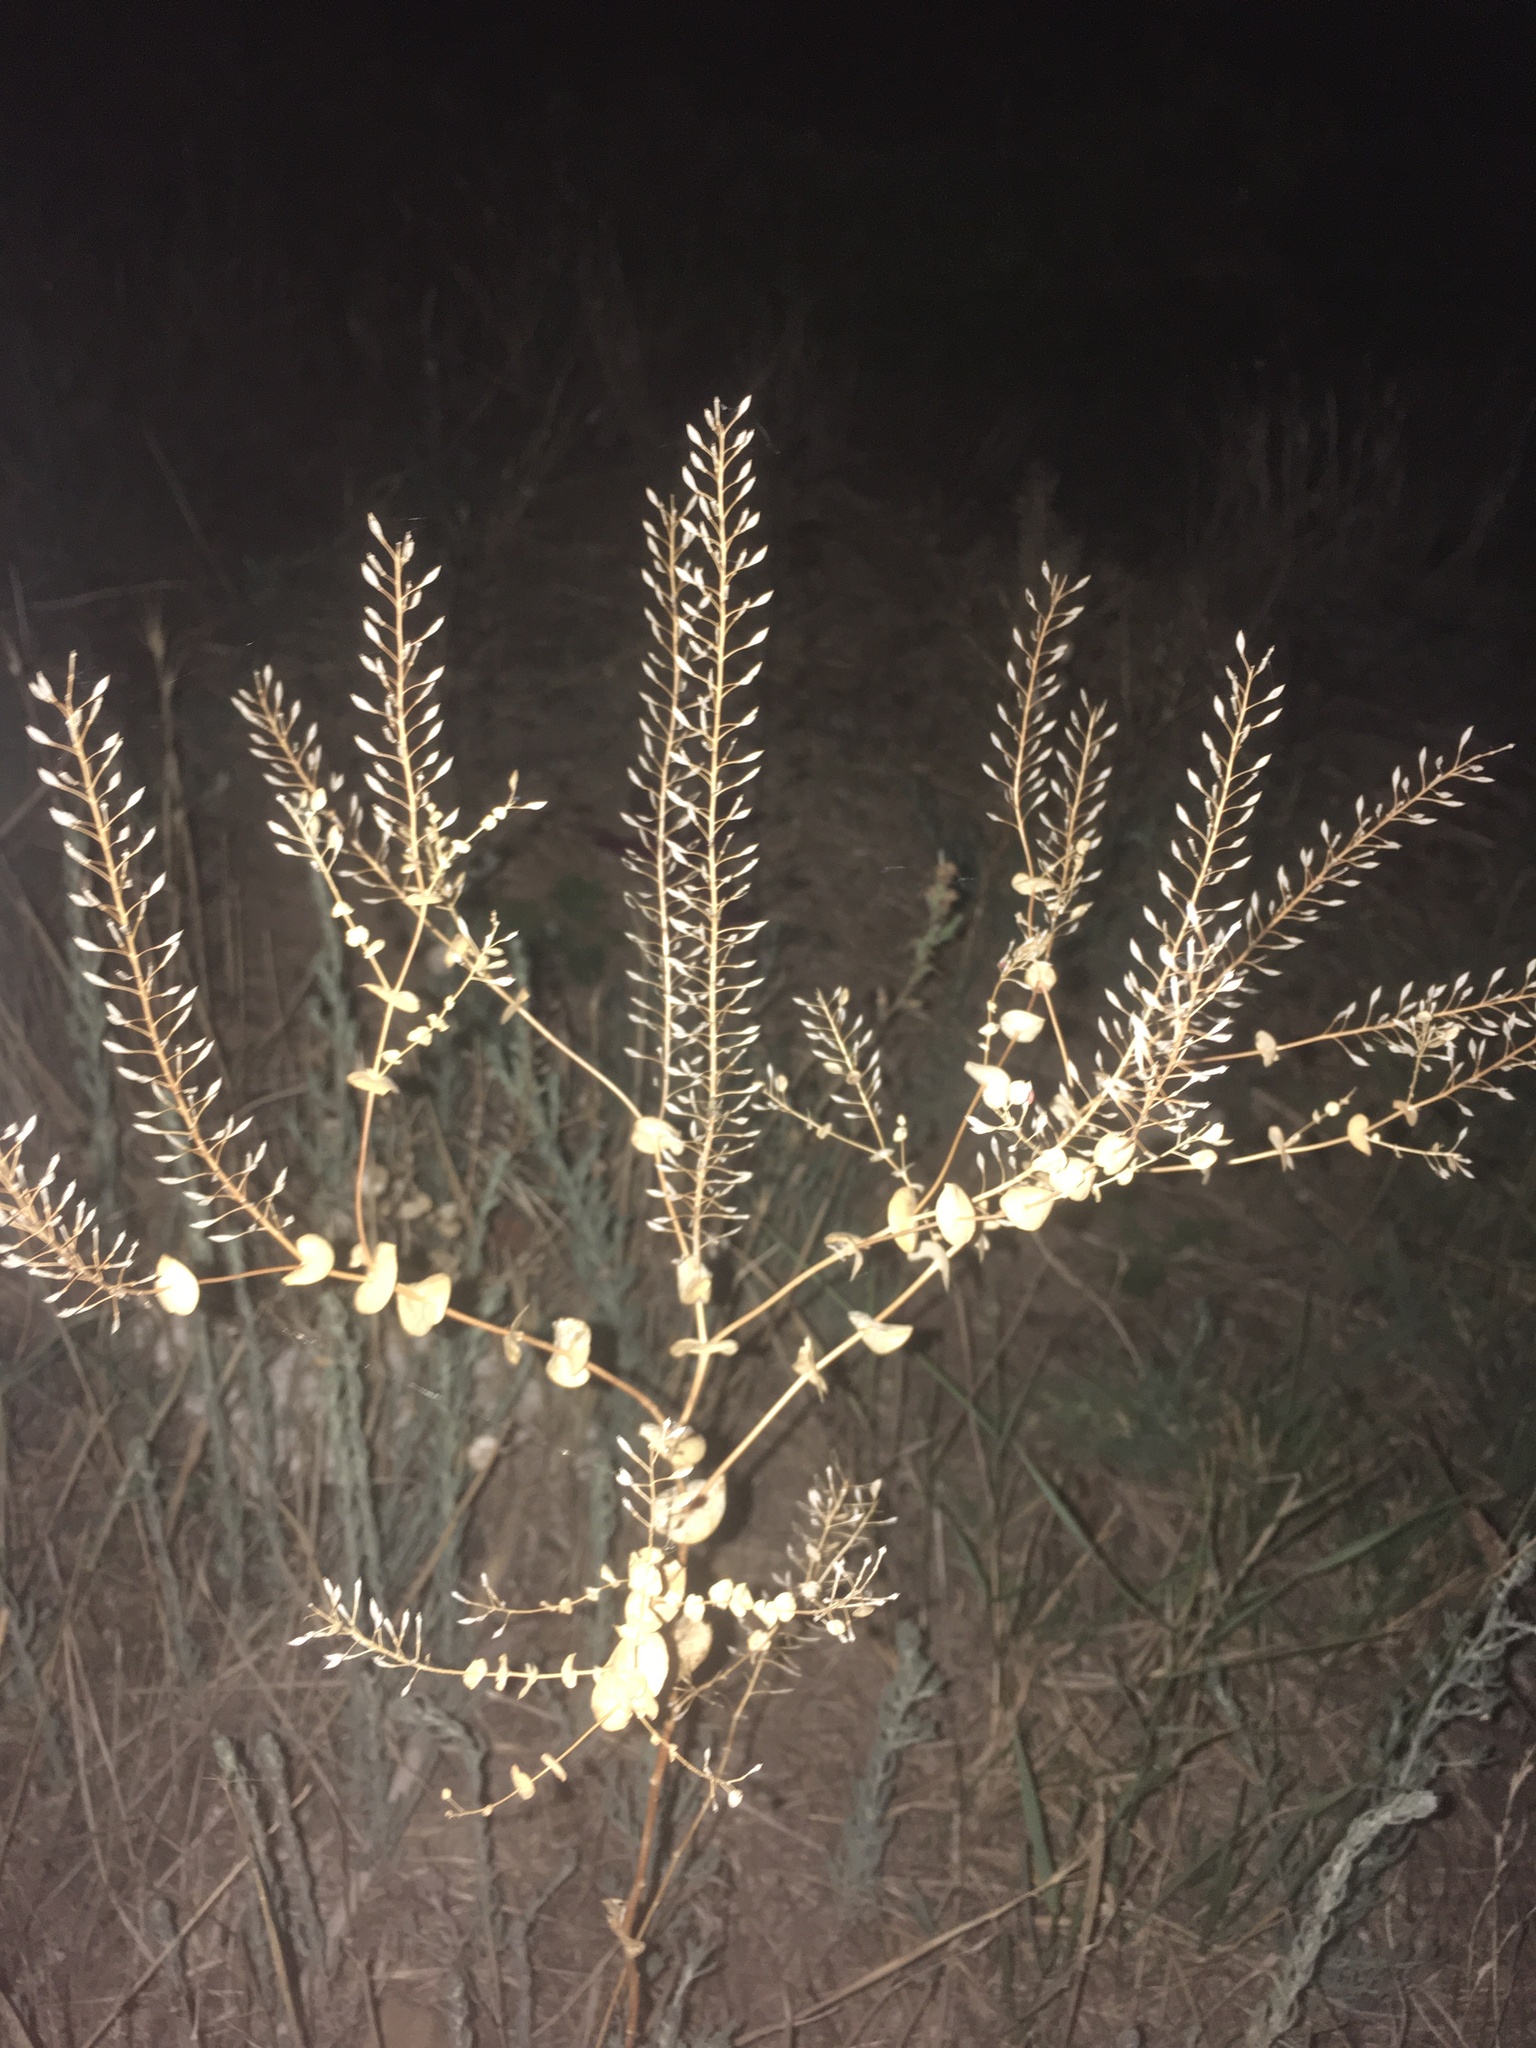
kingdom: Plantae
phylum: Tracheophyta
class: Magnoliopsida
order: Brassicales
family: Brassicaceae
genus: Lepidium
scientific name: Lepidium perfoliatum
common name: Perfoliate pepperwort
